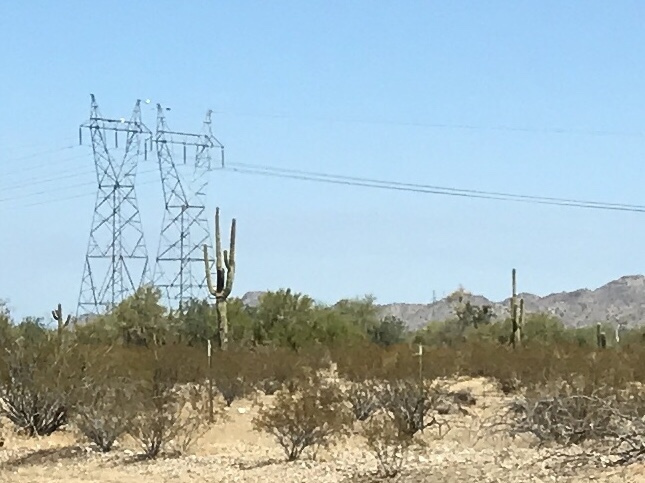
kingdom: Plantae
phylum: Tracheophyta
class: Magnoliopsida
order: Caryophyllales
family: Cactaceae
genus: Carnegiea
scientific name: Carnegiea gigantea
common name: Saguaro
